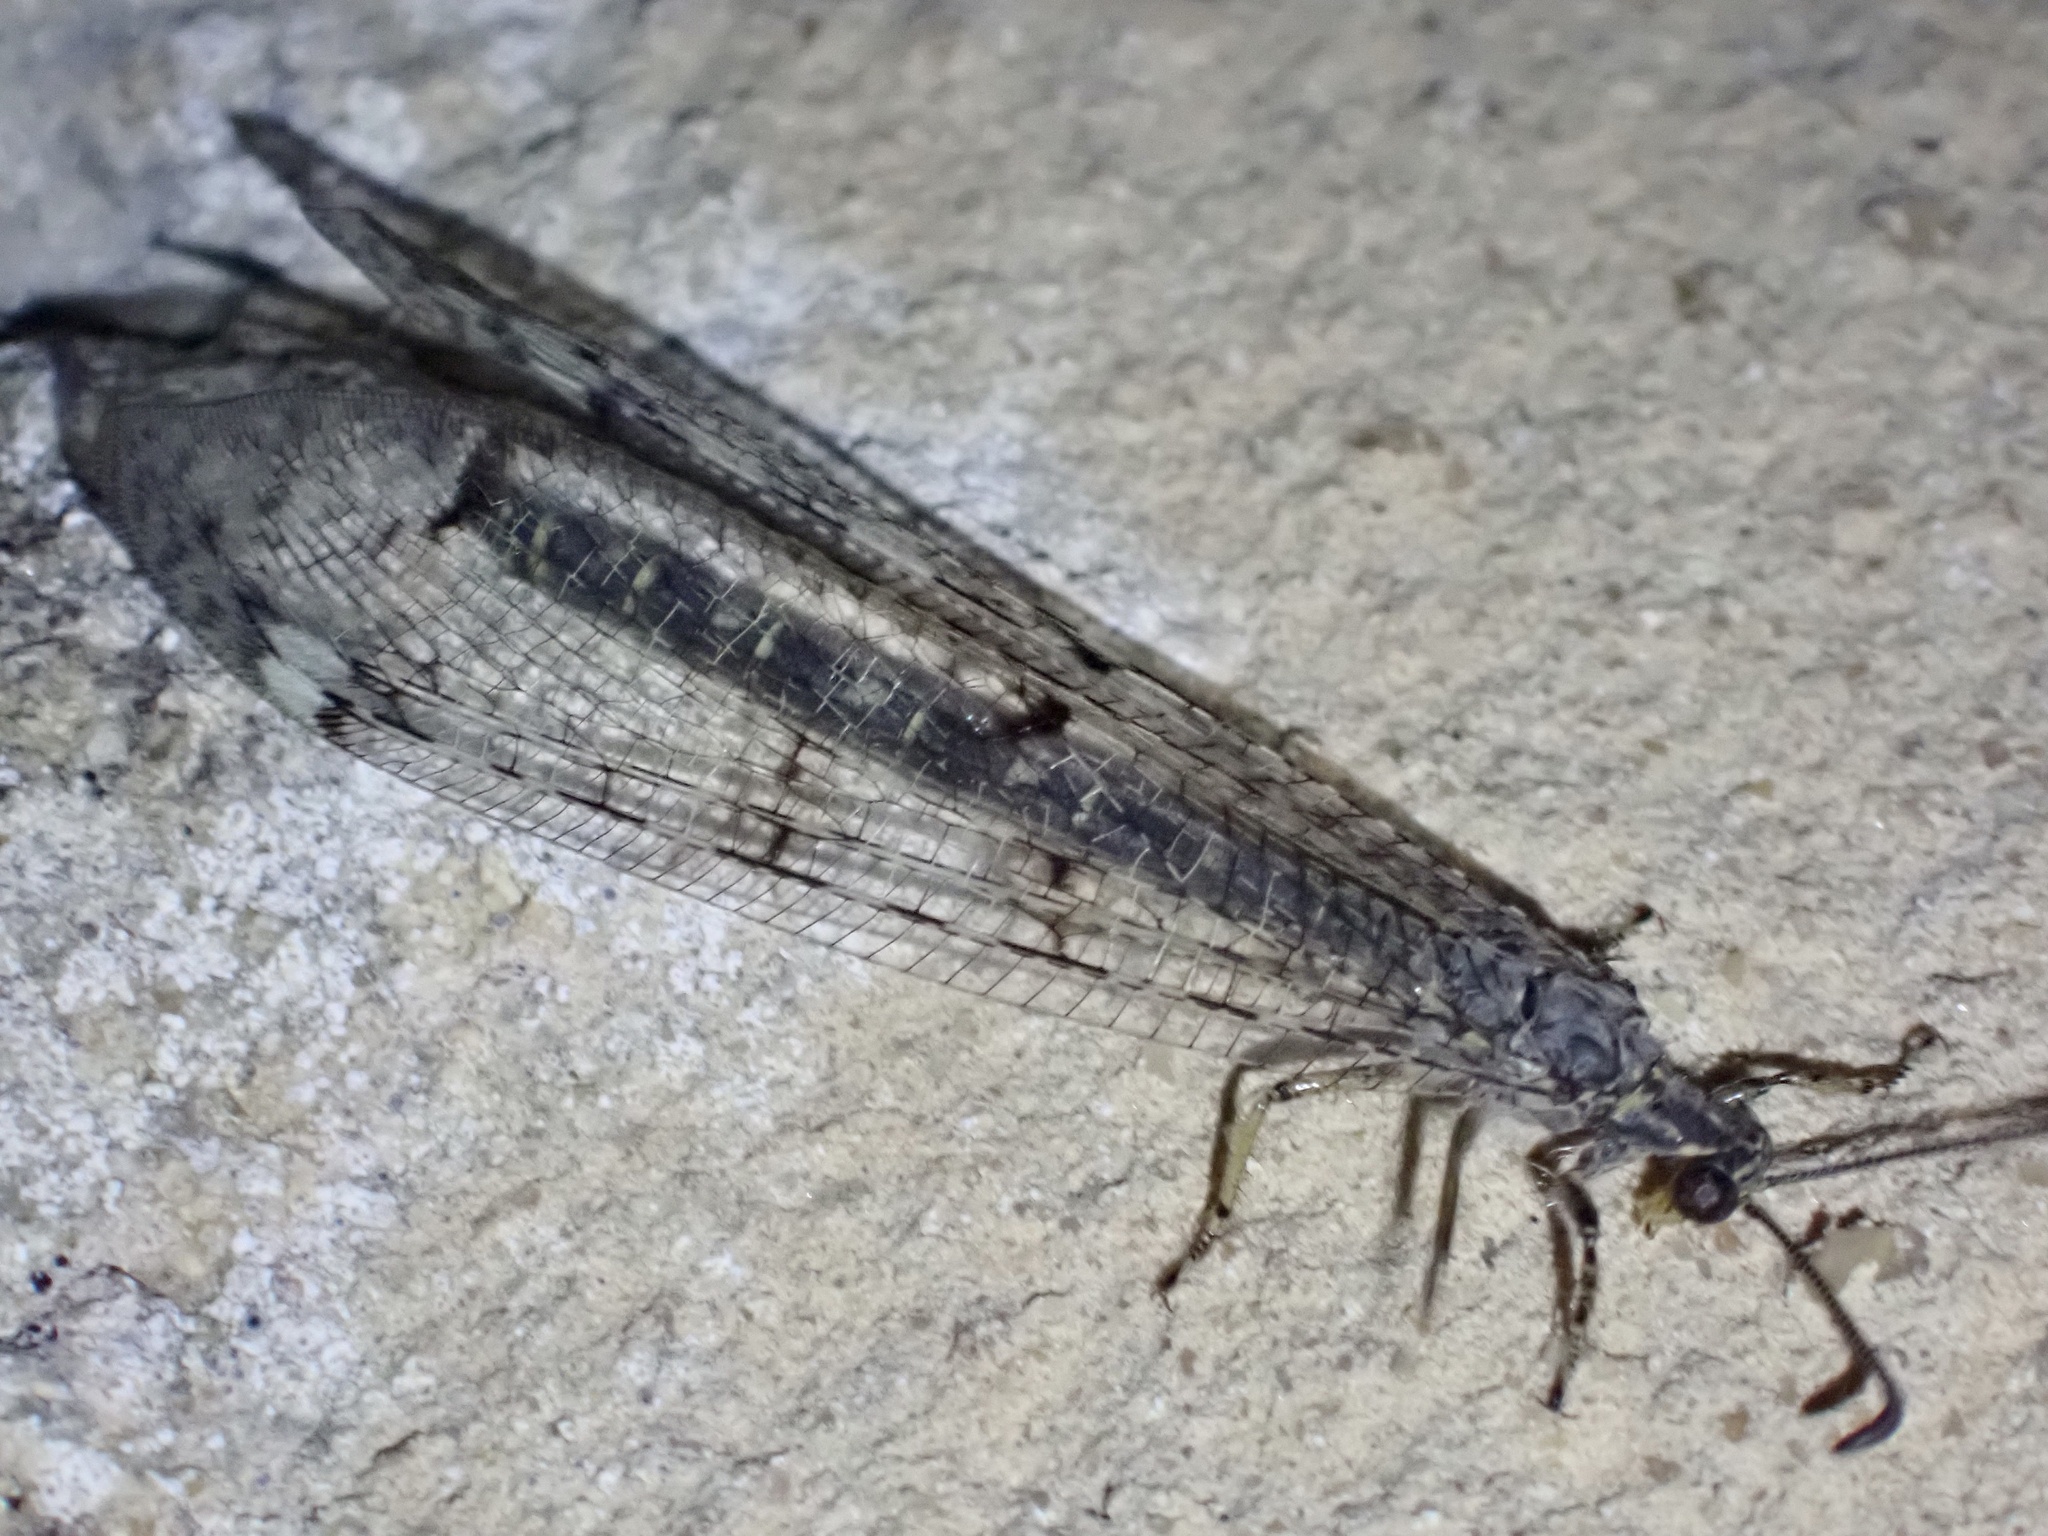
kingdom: Animalia
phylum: Arthropoda
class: Insecta
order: Neuroptera
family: Myrmeleontidae
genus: Distoleon
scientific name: Distoleon tetragrammicus
